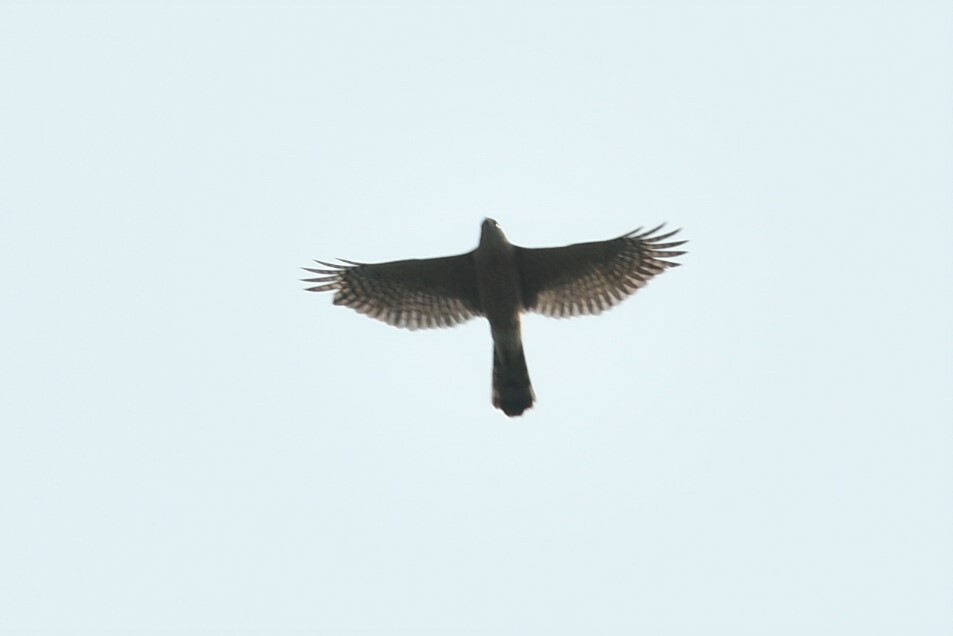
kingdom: Animalia
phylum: Chordata
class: Aves
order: Accipitriformes
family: Accipitridae
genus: Accipiter
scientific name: Accipiter cooperii
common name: Cooper's hawk
